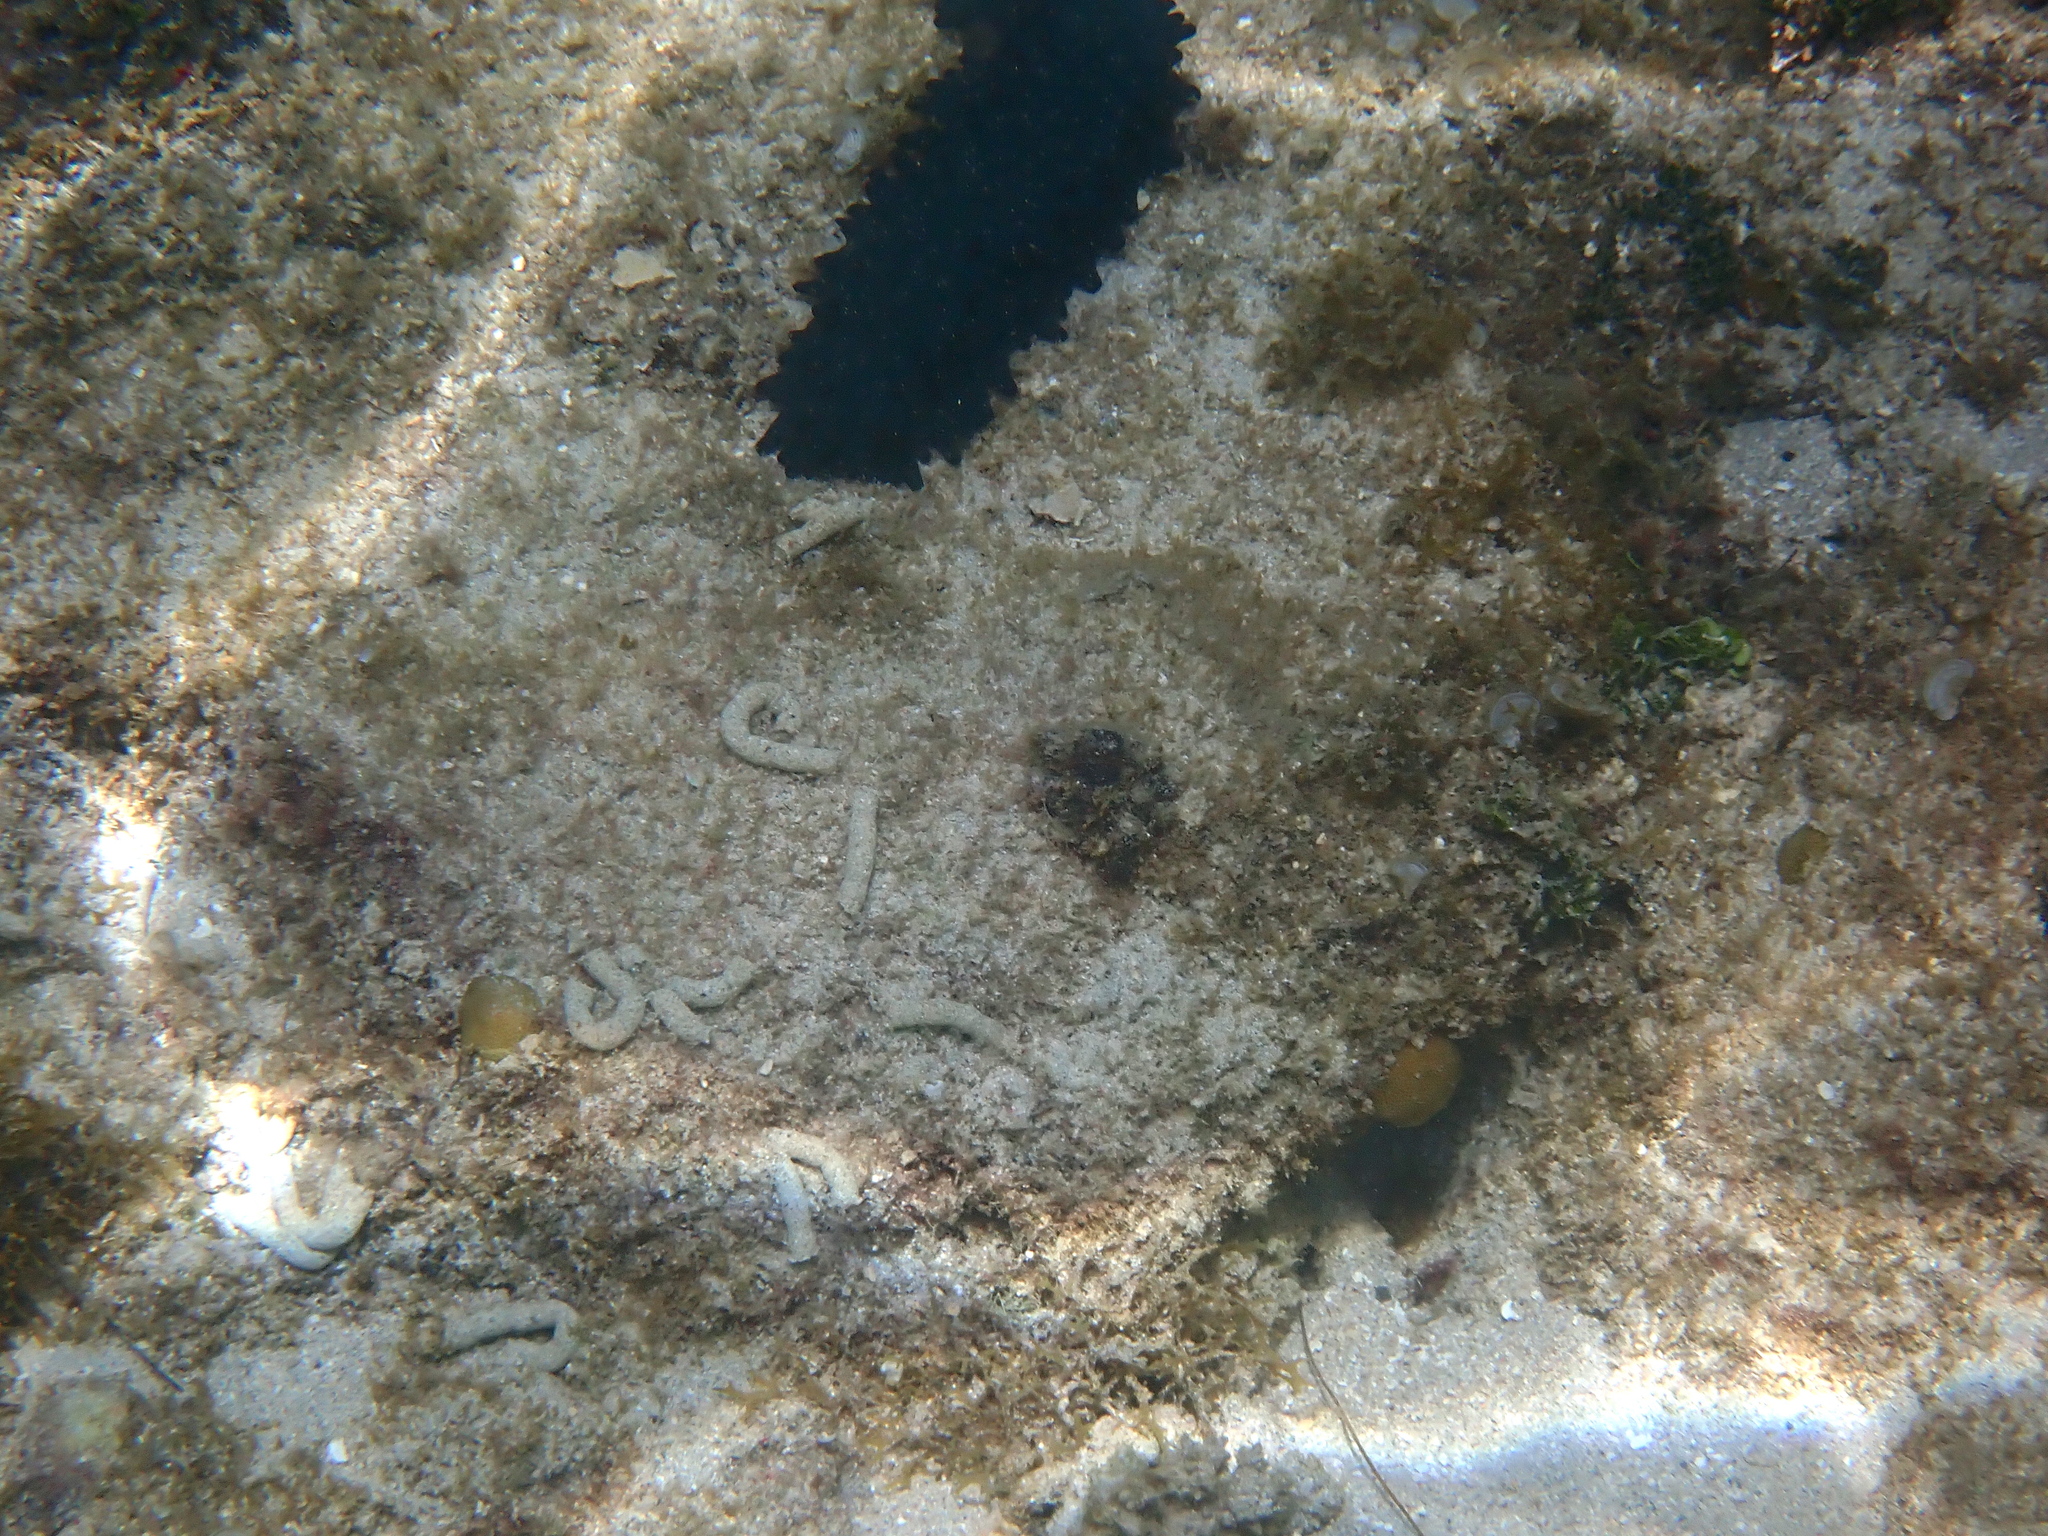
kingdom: Animalia
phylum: Echinodermata
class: Holothuroidea
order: Synallactida
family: Stichopodidae
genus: Stichopus
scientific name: Stichopus chloronotus
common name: Greenfish
